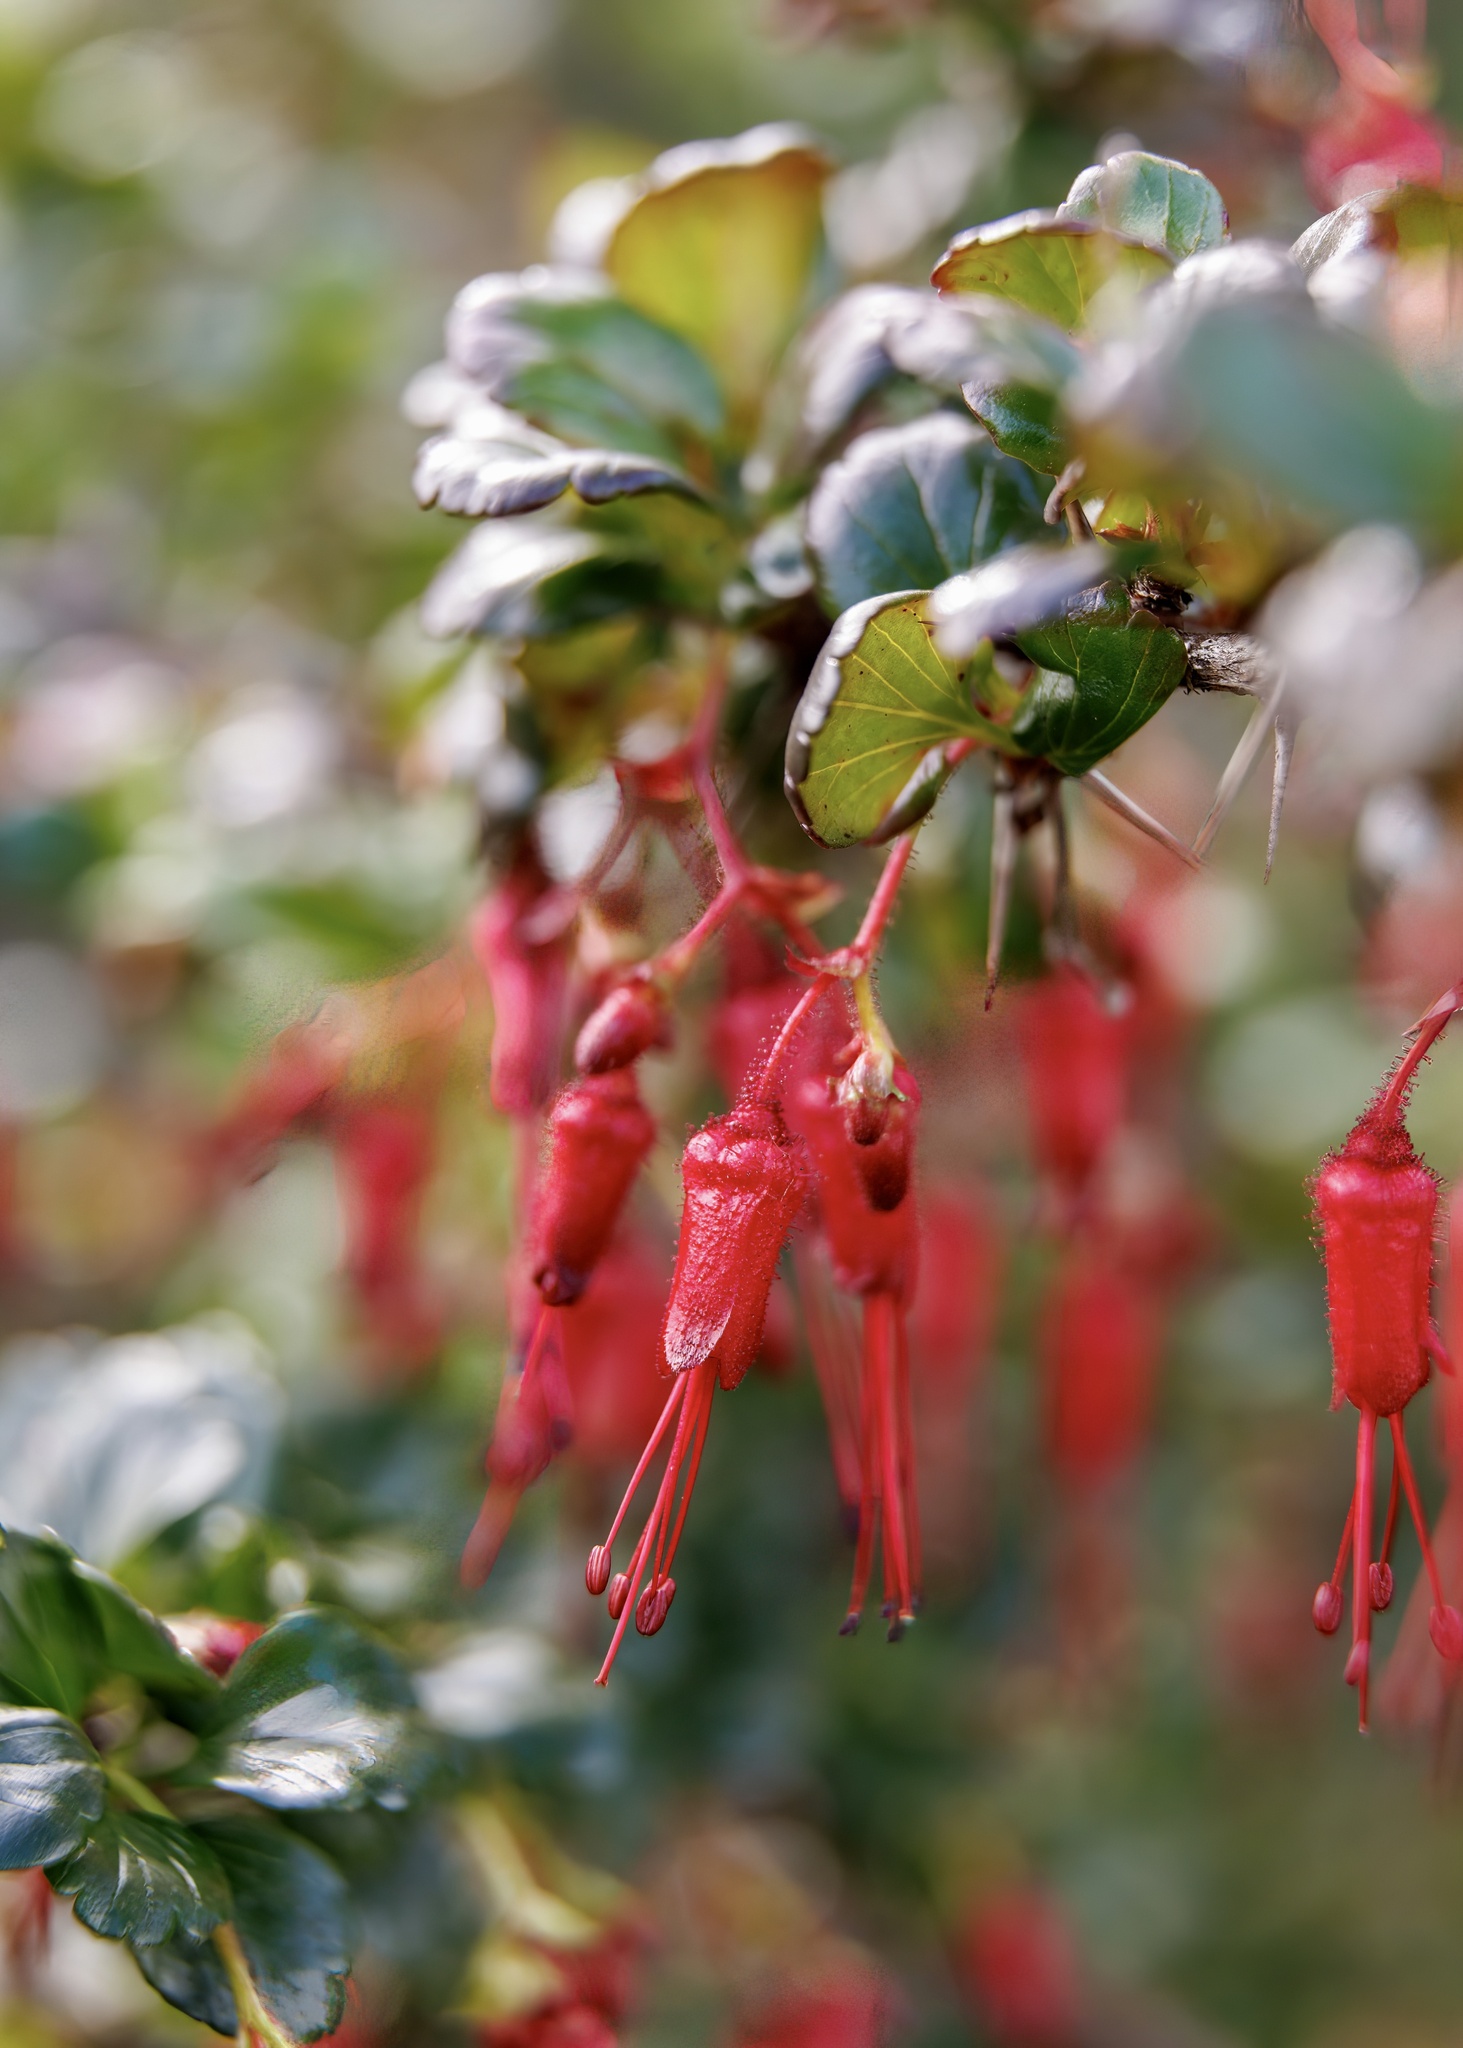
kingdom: Plantae
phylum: Tracheophyta
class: Magnoliopsida
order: Saxifragales
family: Grossulariaceae
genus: Ribes
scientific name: Ribes speciosum
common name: Fuchsia-flower gooseberry
